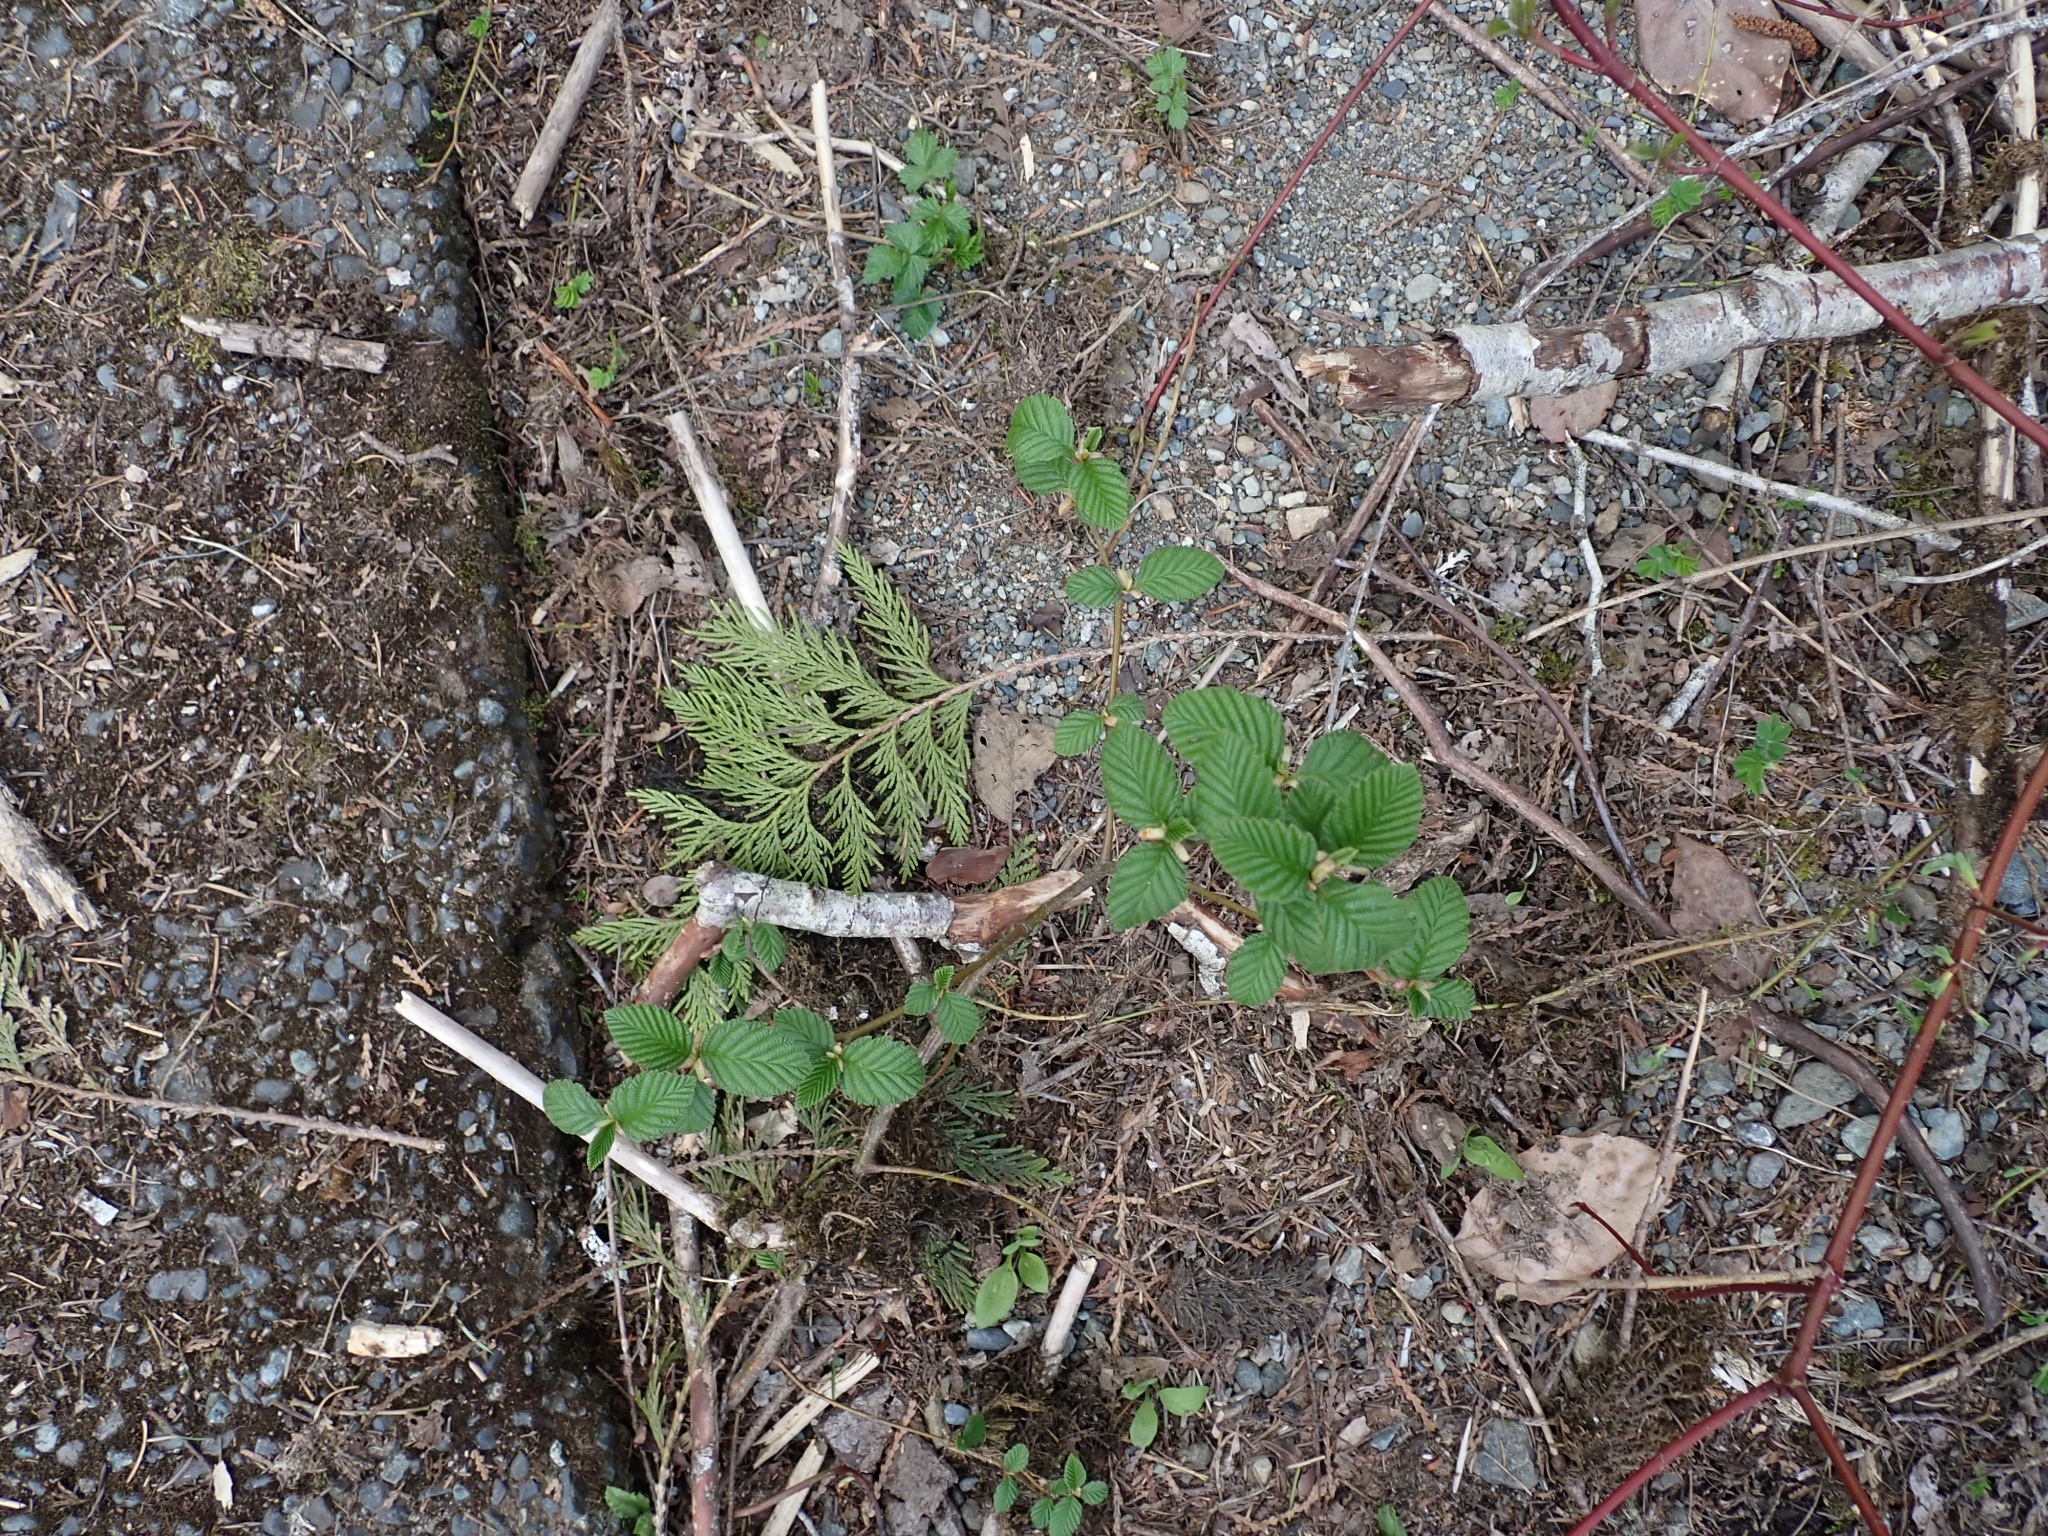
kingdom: Plantae
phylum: Tracheophyta
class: Magnoliopsida
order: Fagales
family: Betulaceae
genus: Alnus
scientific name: Alnus rubra
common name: Red alder
